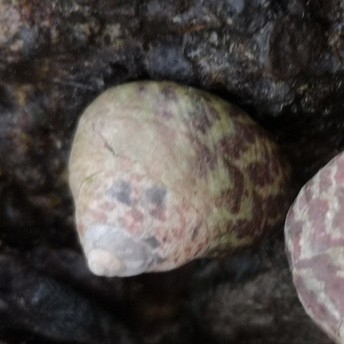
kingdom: Animalia
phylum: Mollusca
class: Gastropoda
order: Trochida
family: Trochidae
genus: Phorcus
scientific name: Phorcus sauciatus
